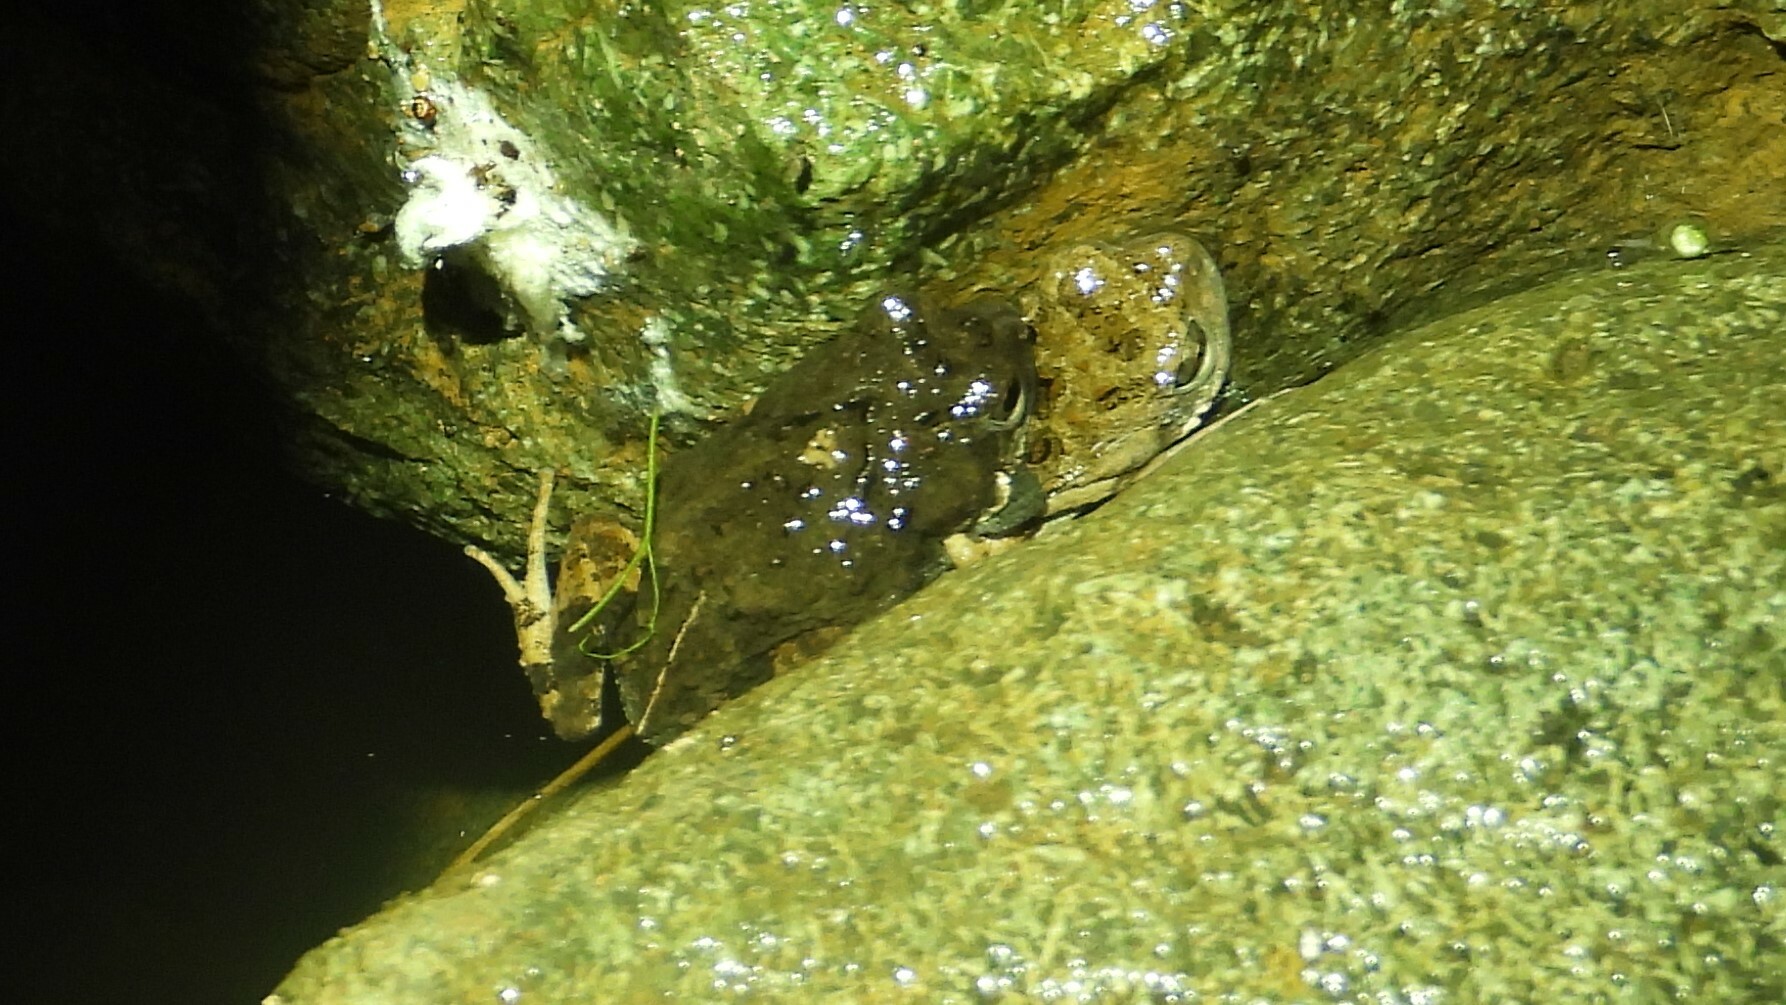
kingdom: Animalia
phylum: Chordata
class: Amphibia
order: Anura
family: Leptodactylidae
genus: Engystomops
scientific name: Engystomops pustulosus
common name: Tungara frog
